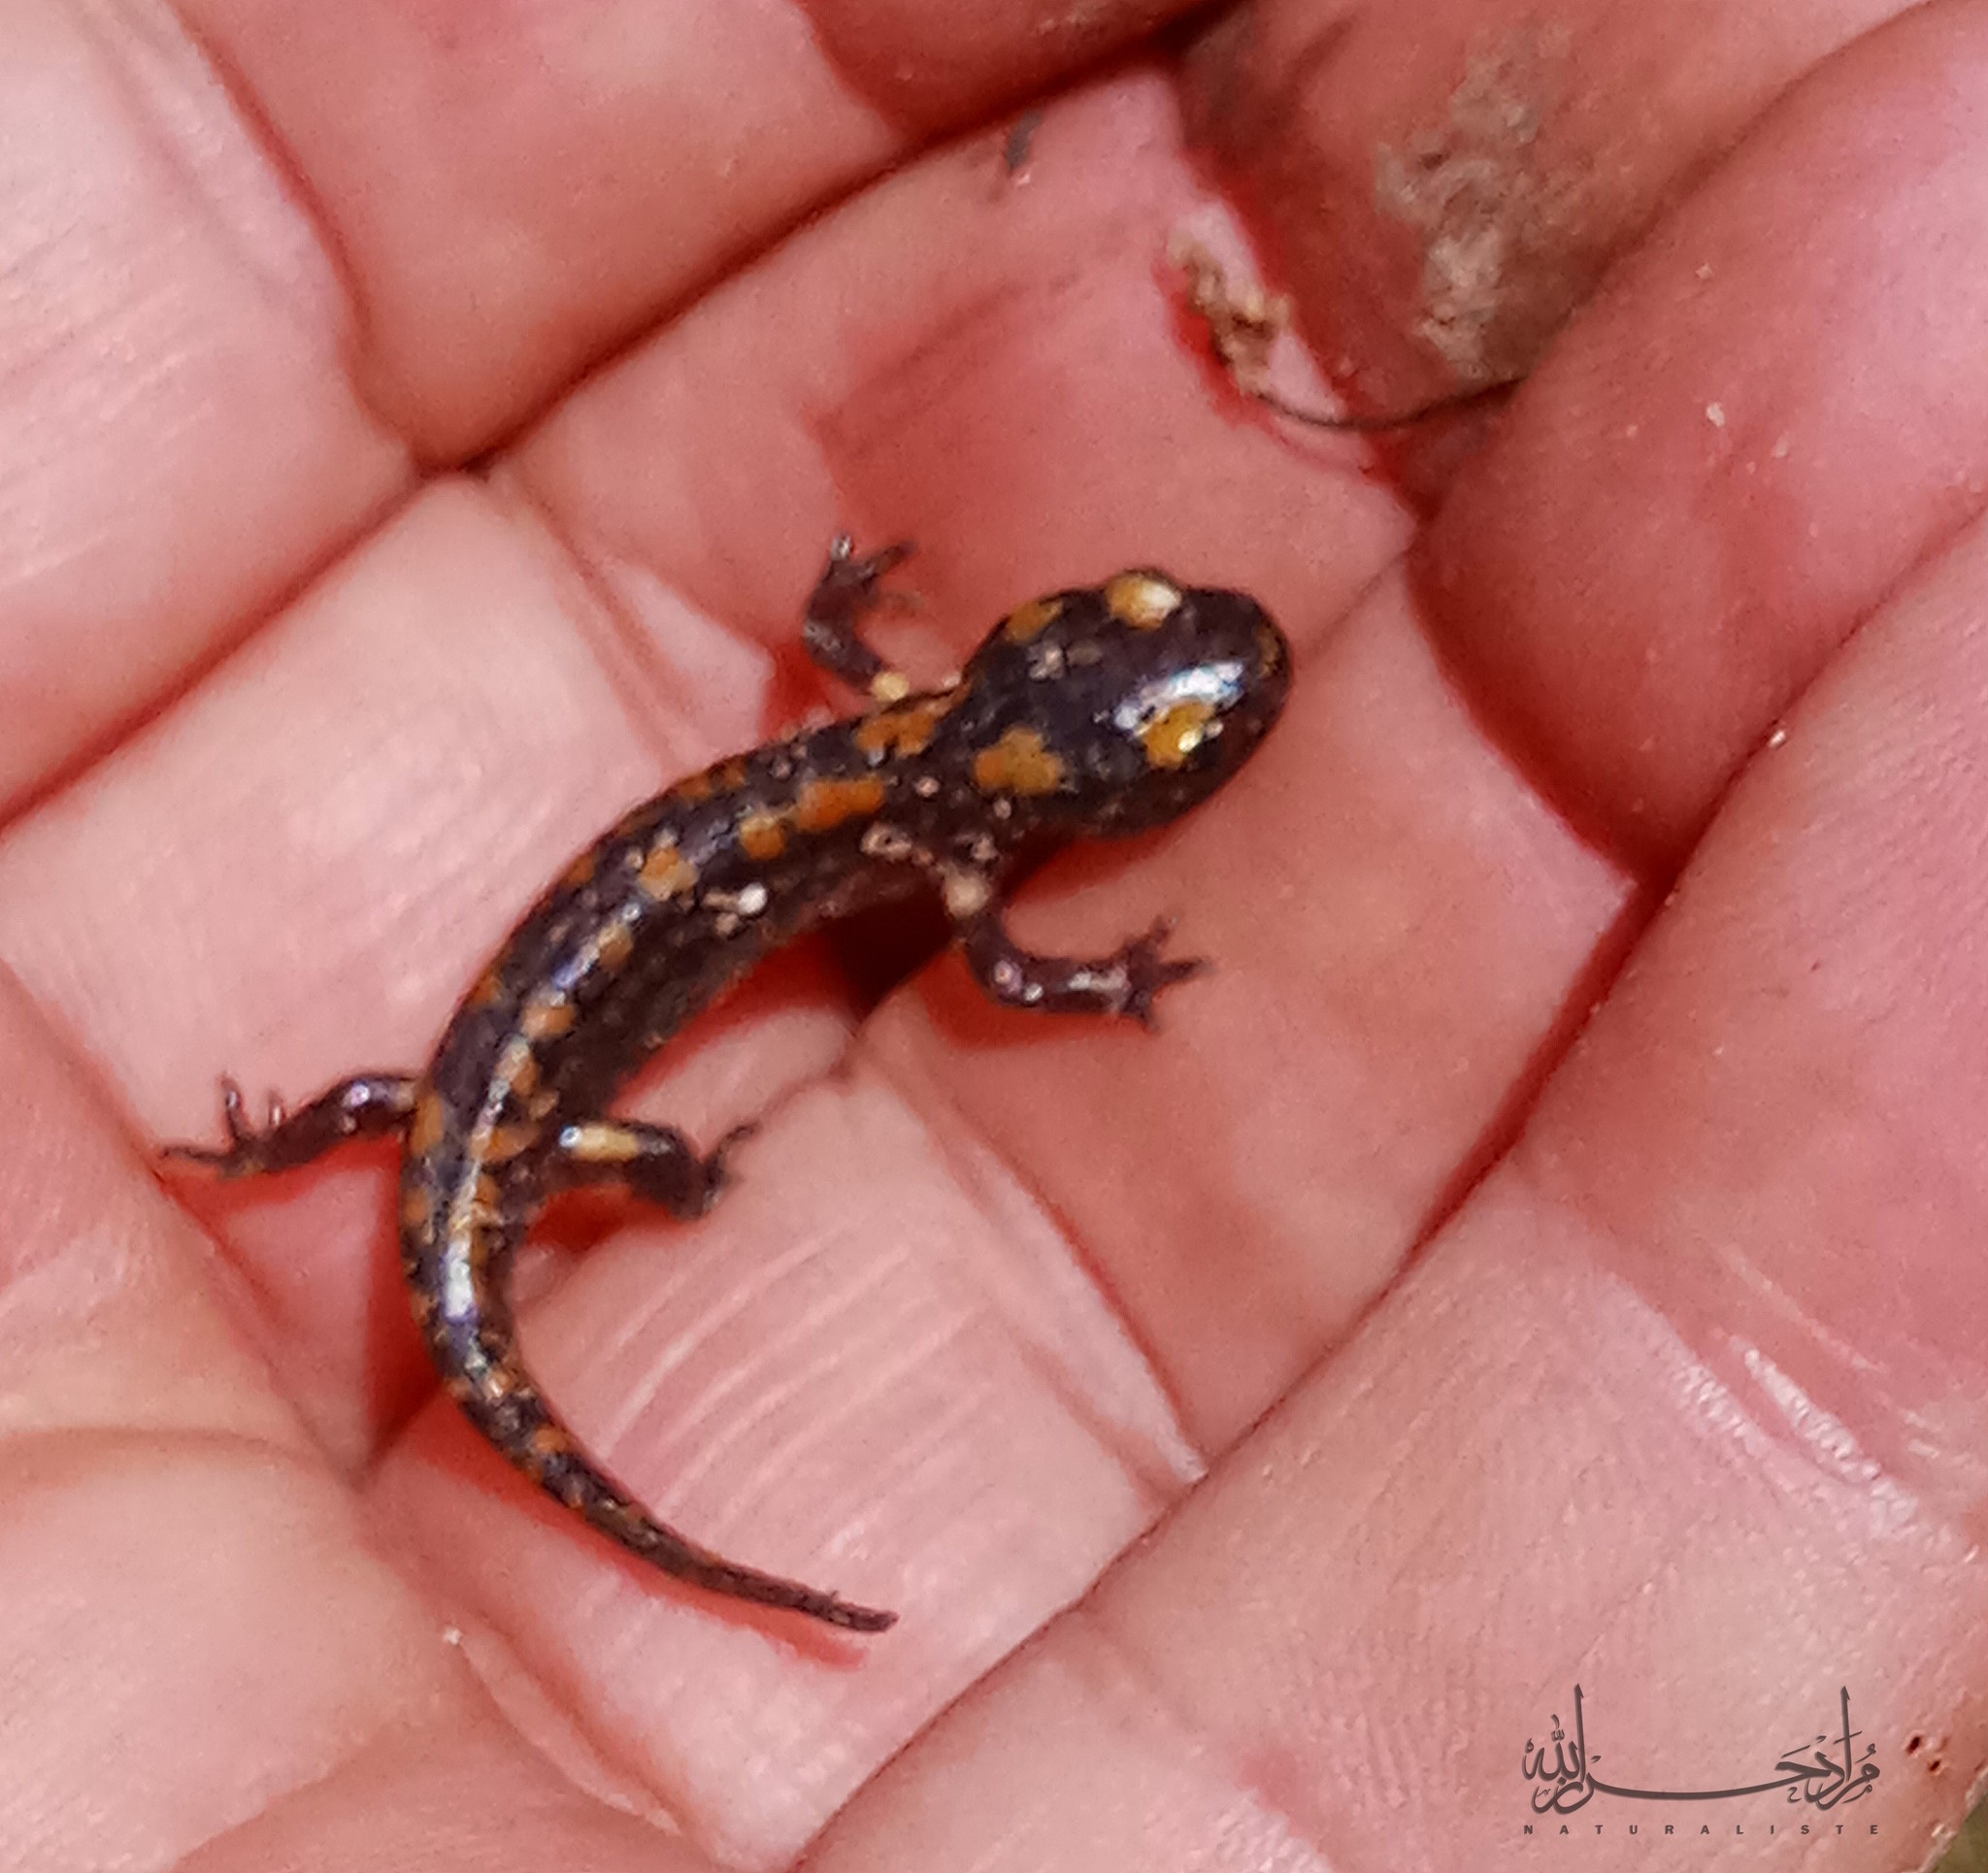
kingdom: Animalia
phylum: Chordata
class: Amphibia
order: Caudata
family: Salamandridae
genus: Salamandra
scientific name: Salamandra algira
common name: North african fire salamander
